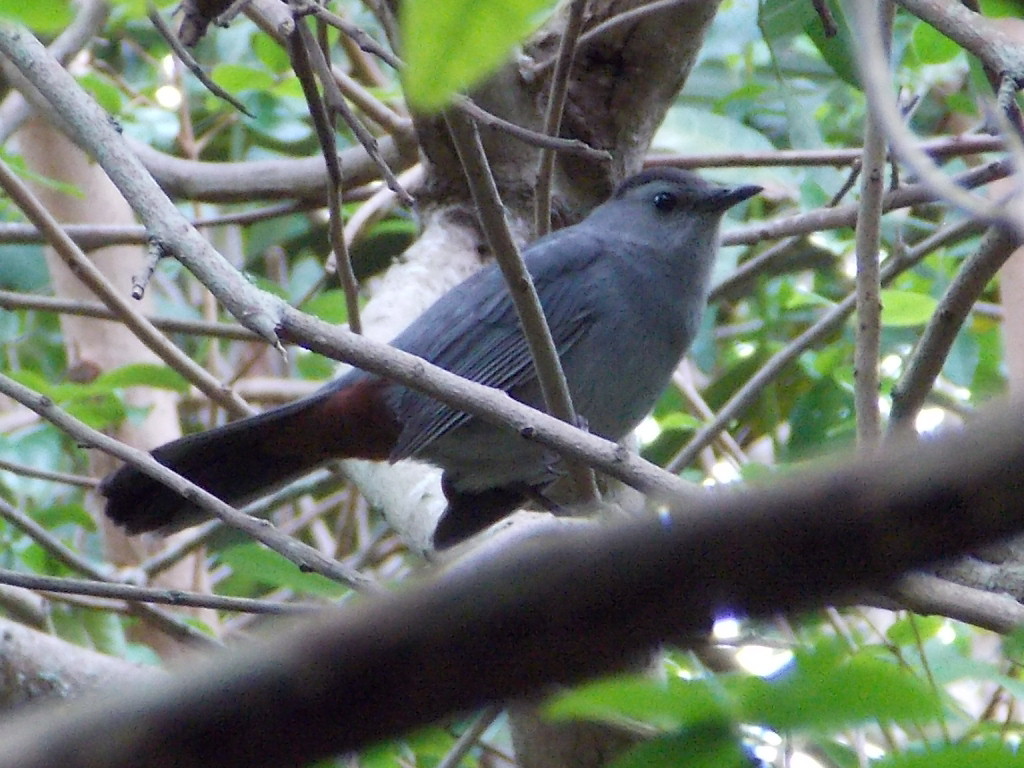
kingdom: Animalia
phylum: Chordata
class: Aves
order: Passeriformes
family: Mimidae
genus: Dumetella
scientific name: Dumetella carolinensis
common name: Gray catbird
